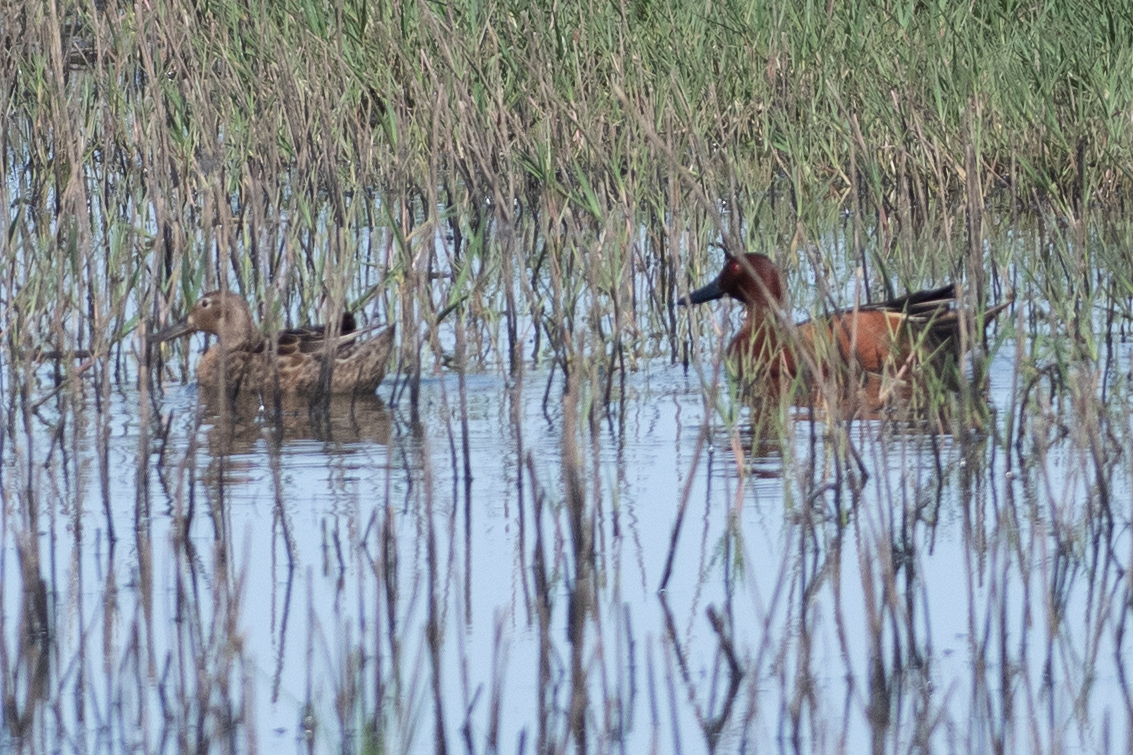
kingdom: Animalia
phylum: Chordata
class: Aves
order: Anseriformes
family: Anatidae
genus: Spatula
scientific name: Spatula cyanoptera
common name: Cinnamon teal
